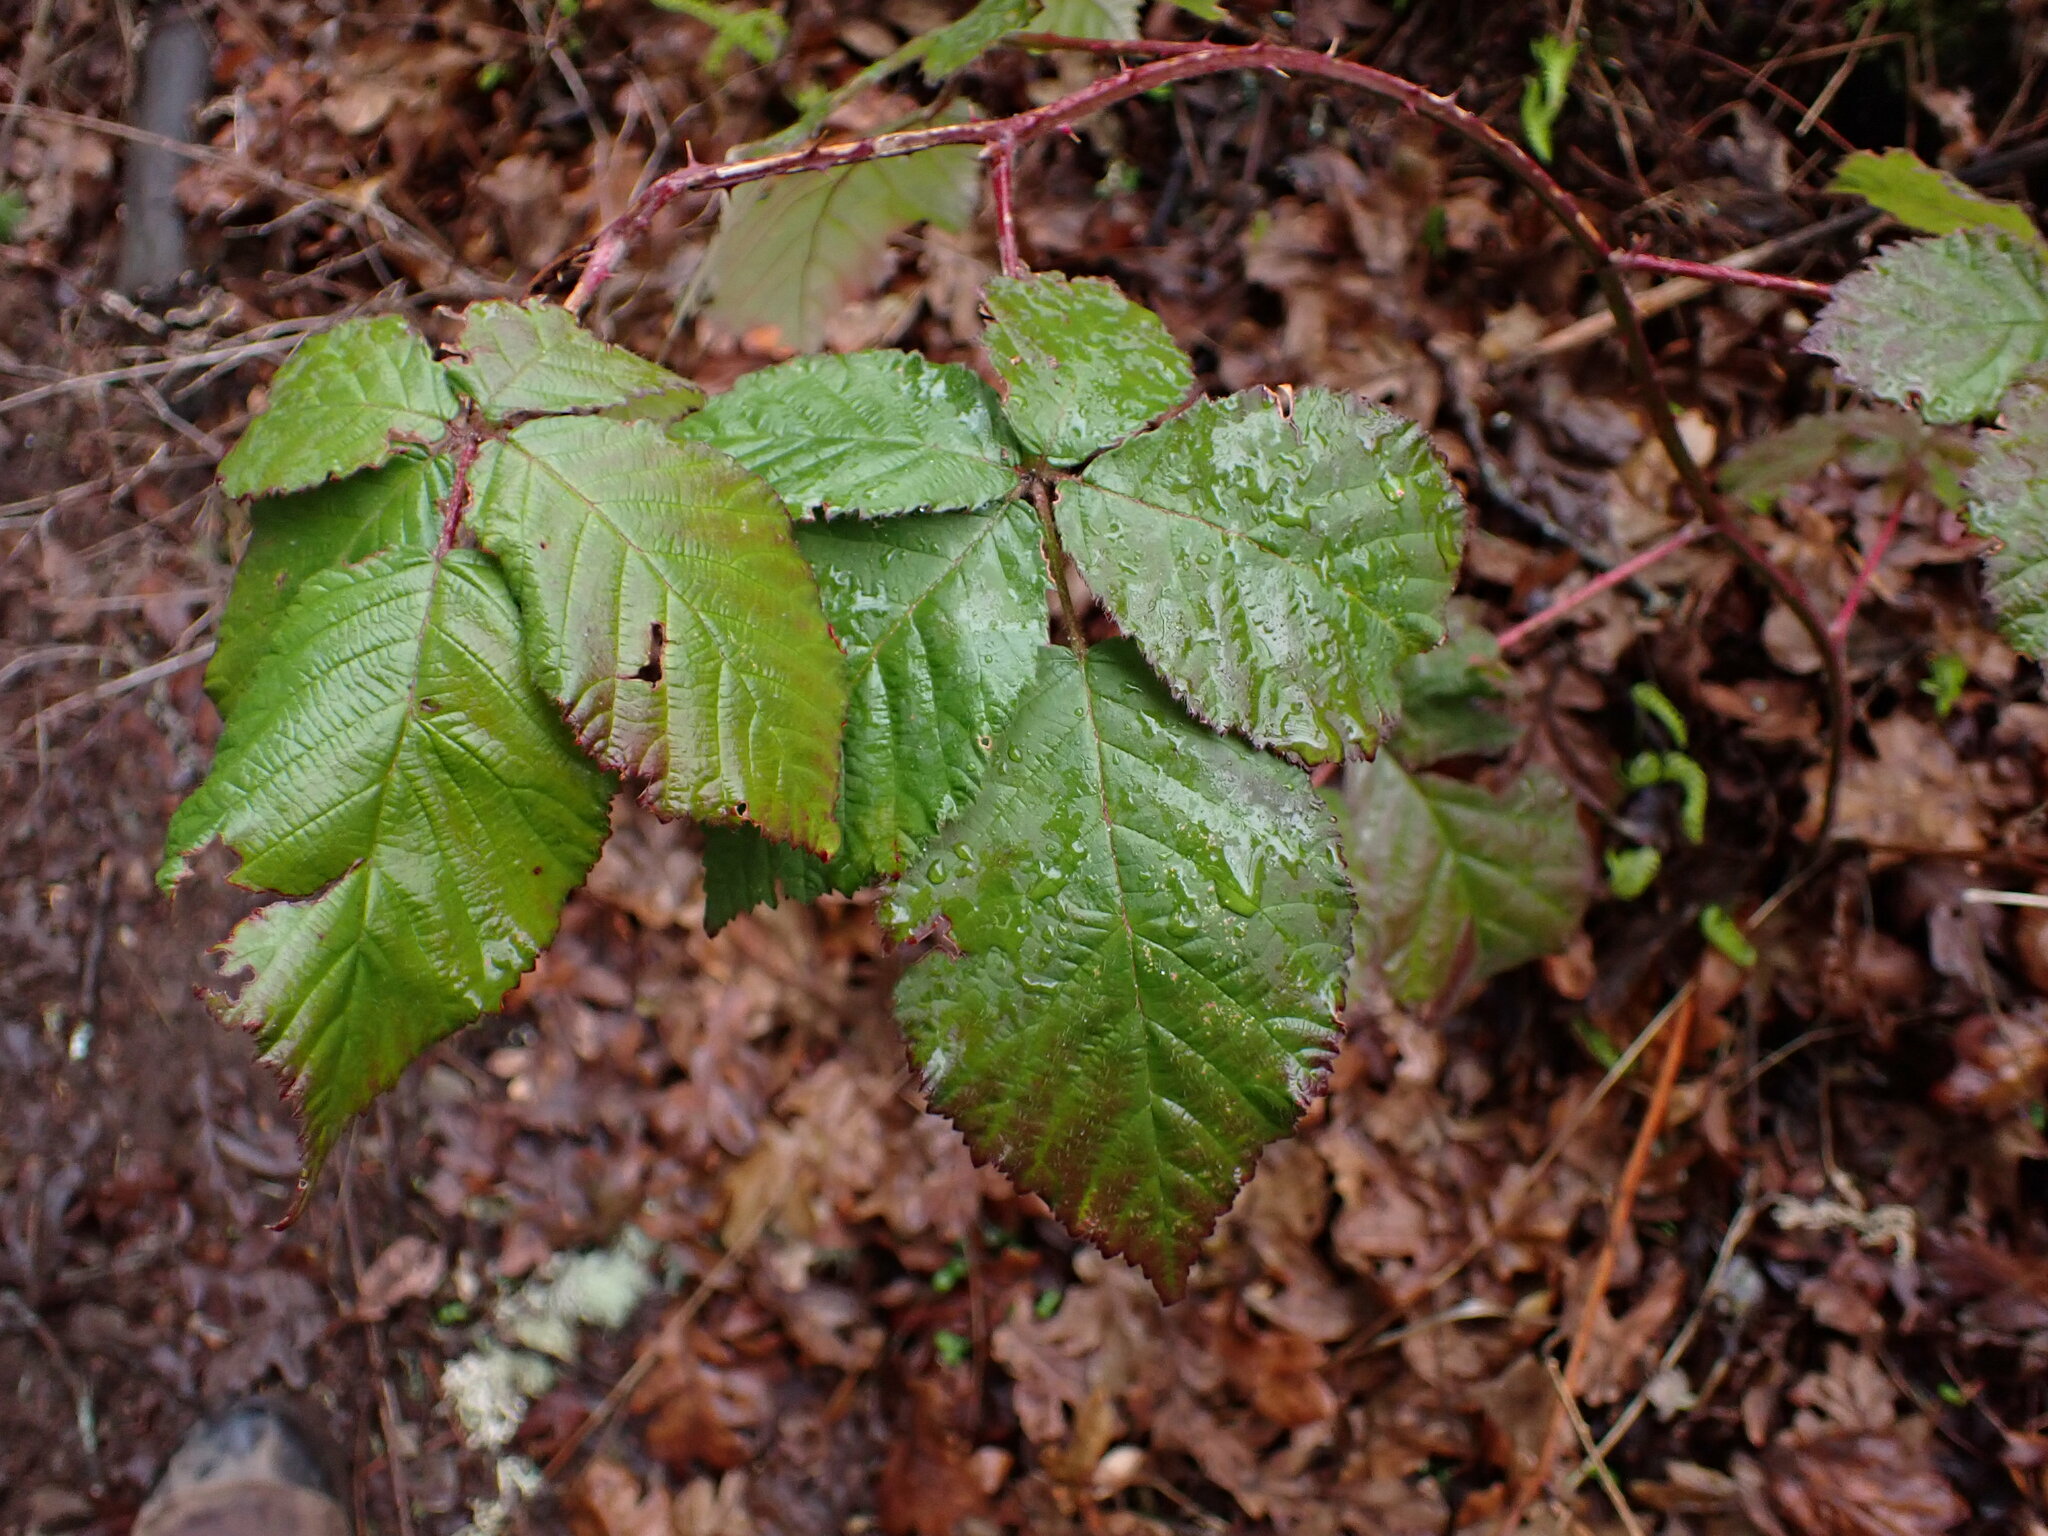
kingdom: Plantae
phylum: Tracheophyta
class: Magnoliopsida
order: Rosales
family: Rosaceae
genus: Rubus
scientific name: Rubus bifrons
